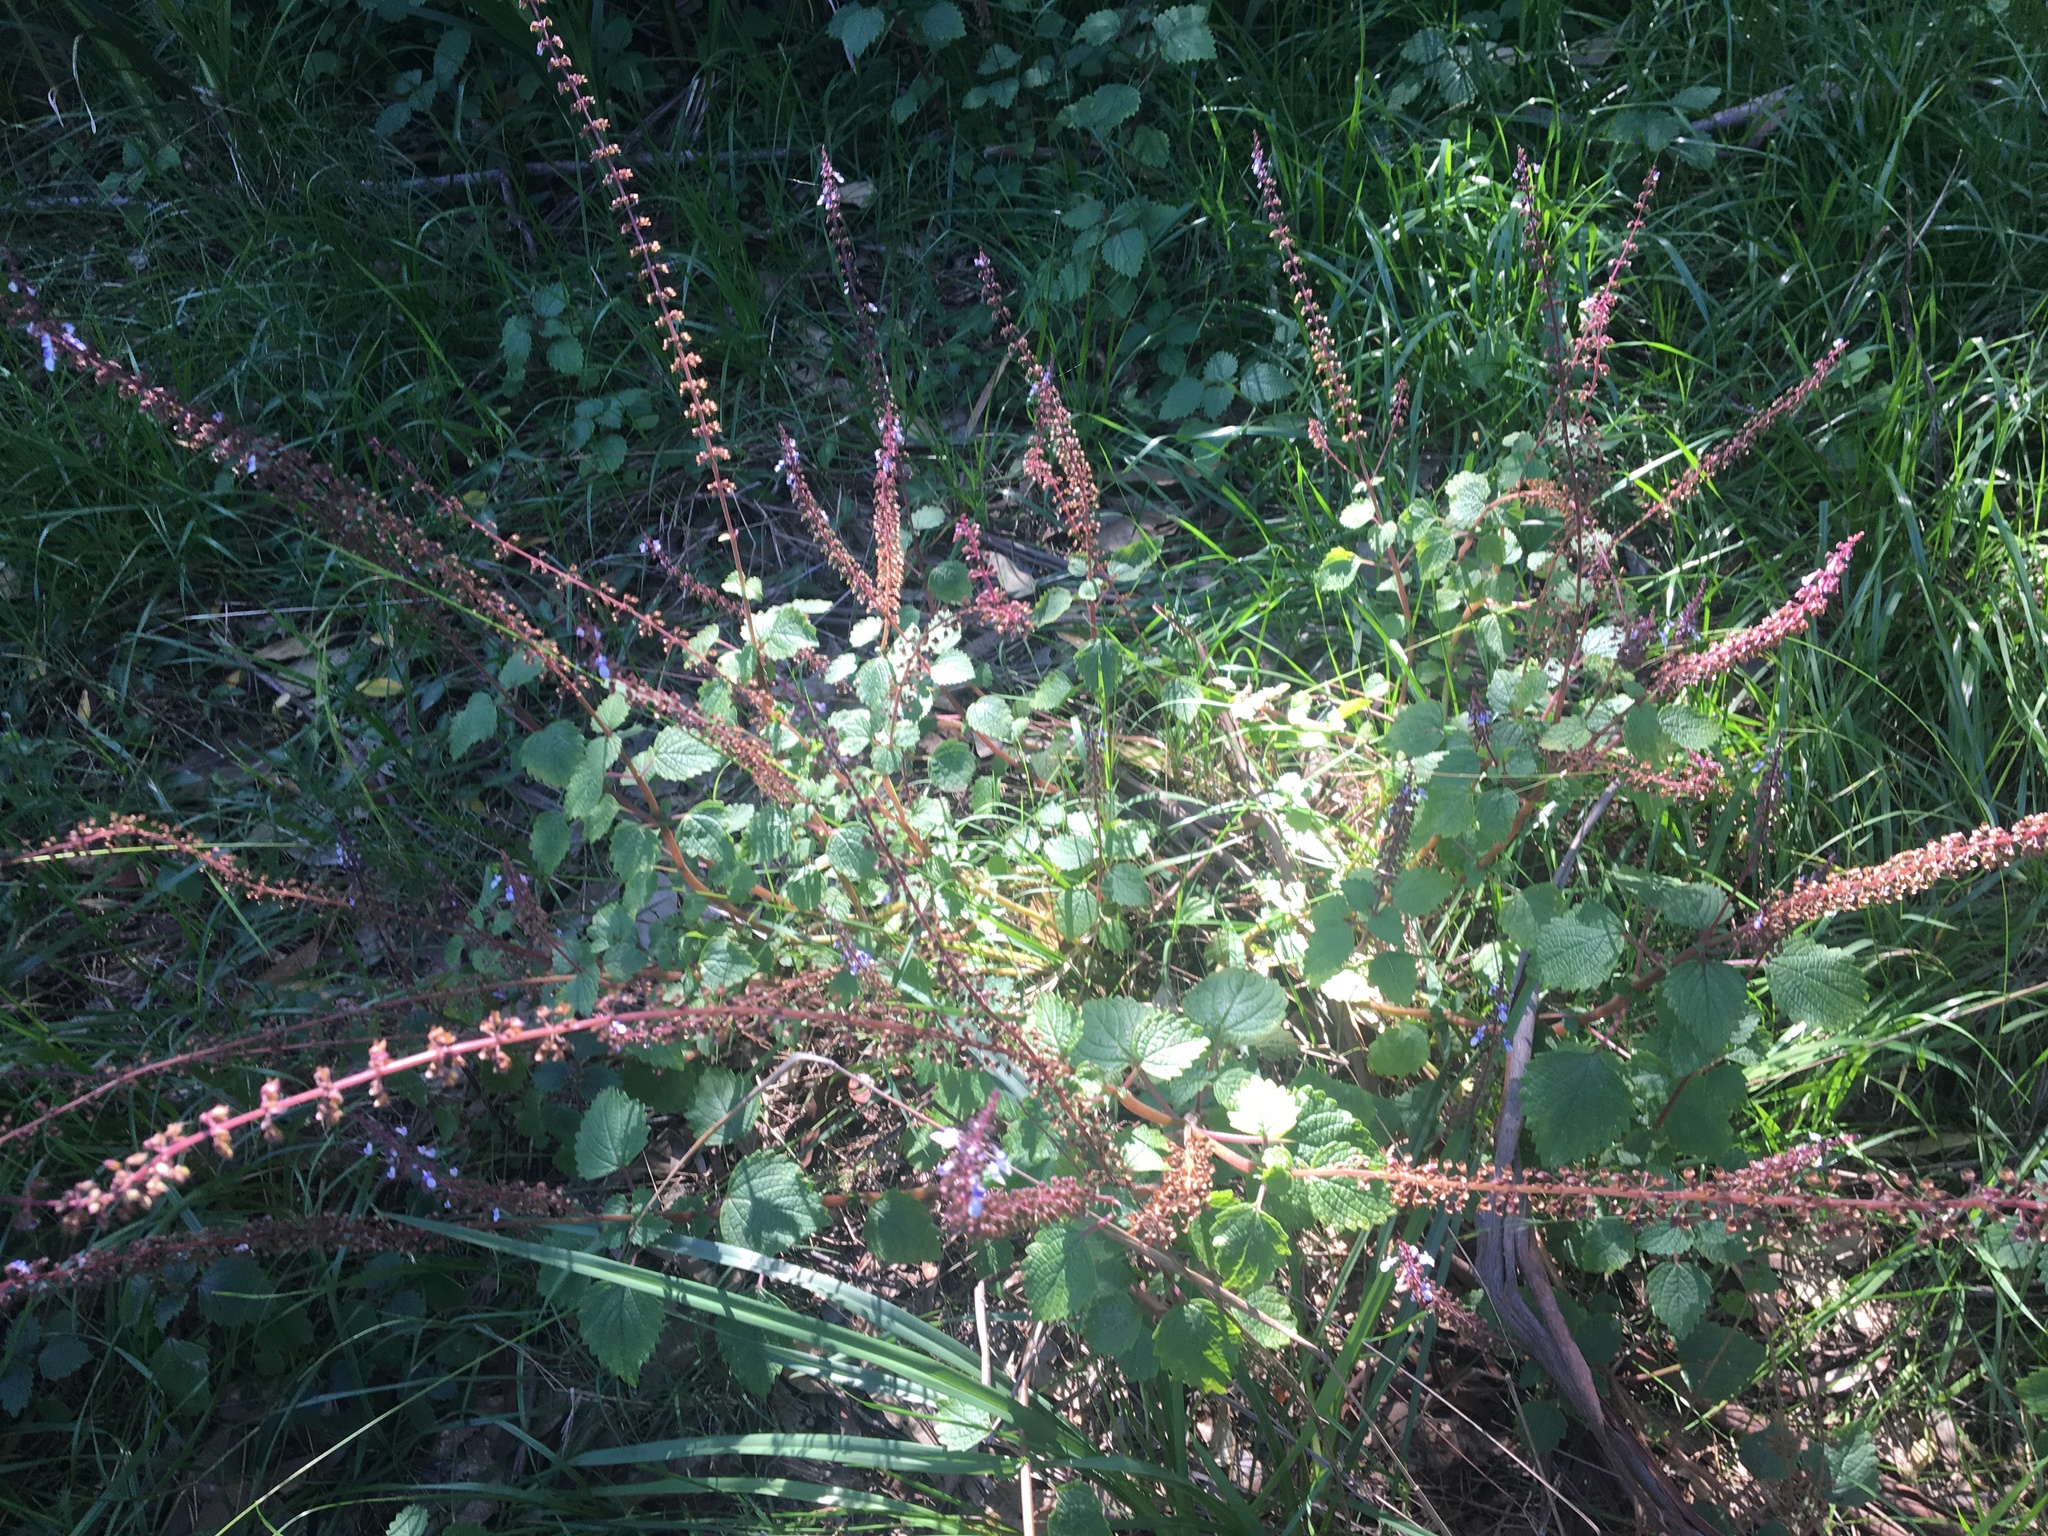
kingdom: Plantae
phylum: Tracheophyta
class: Magnoliopsida
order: Lamiales
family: Lamiaceae
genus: Coleus
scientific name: Coleus australis
